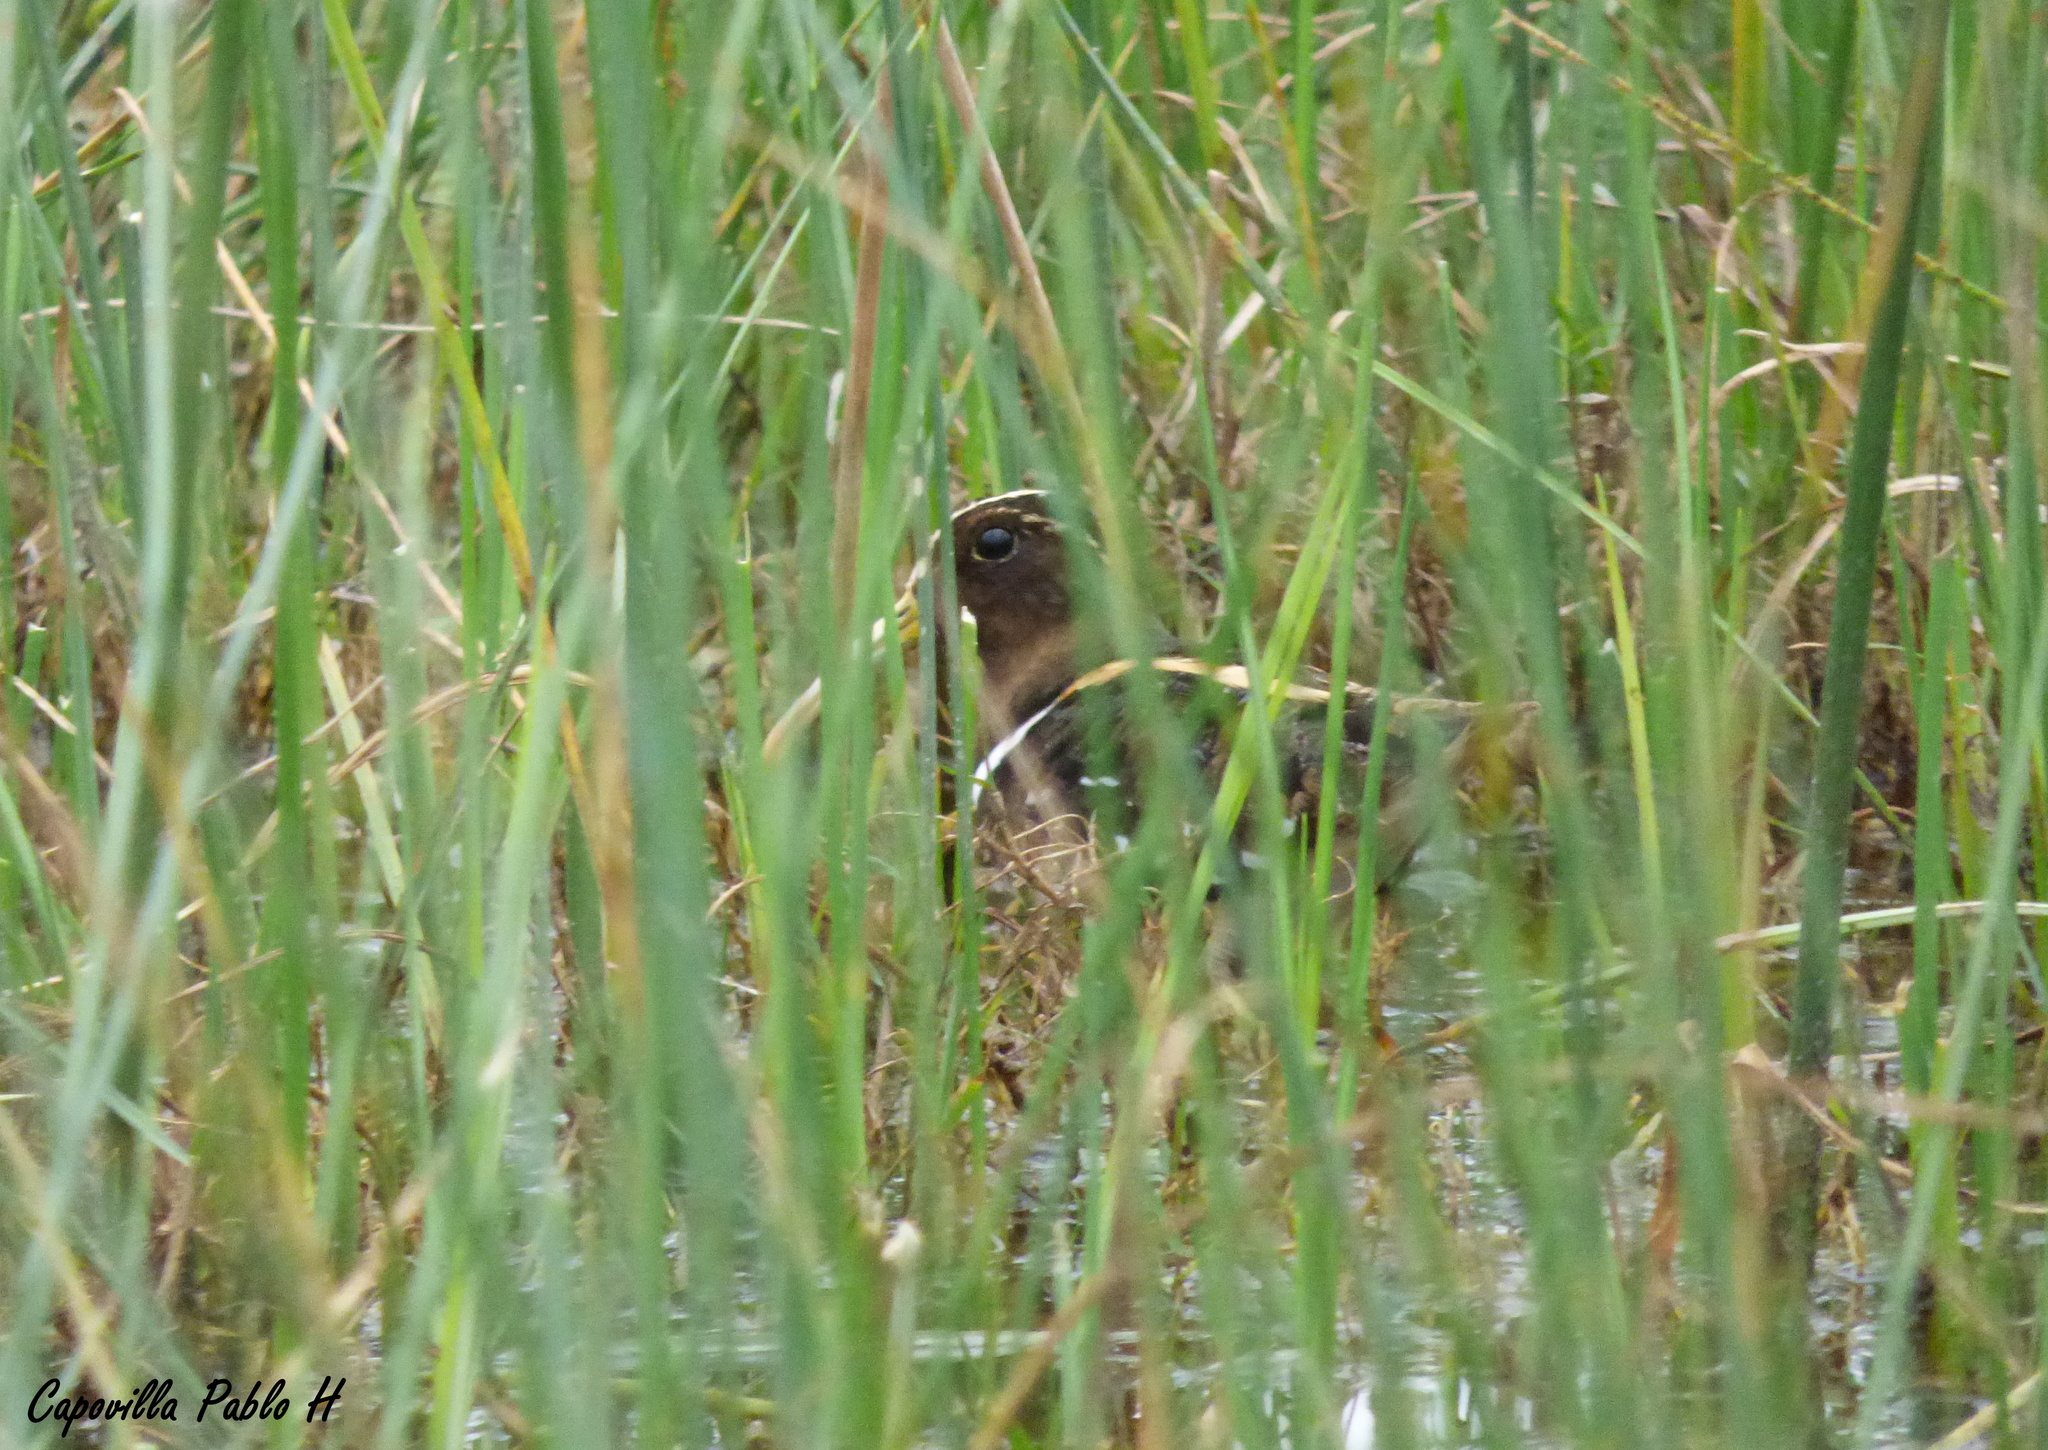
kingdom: Animalia
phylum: Chordata
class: Aves
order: Charadriiformes
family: Rostratulidae
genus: Nycticryphes
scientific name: Nycticryphes semicollaris
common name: South american painted-snipe
